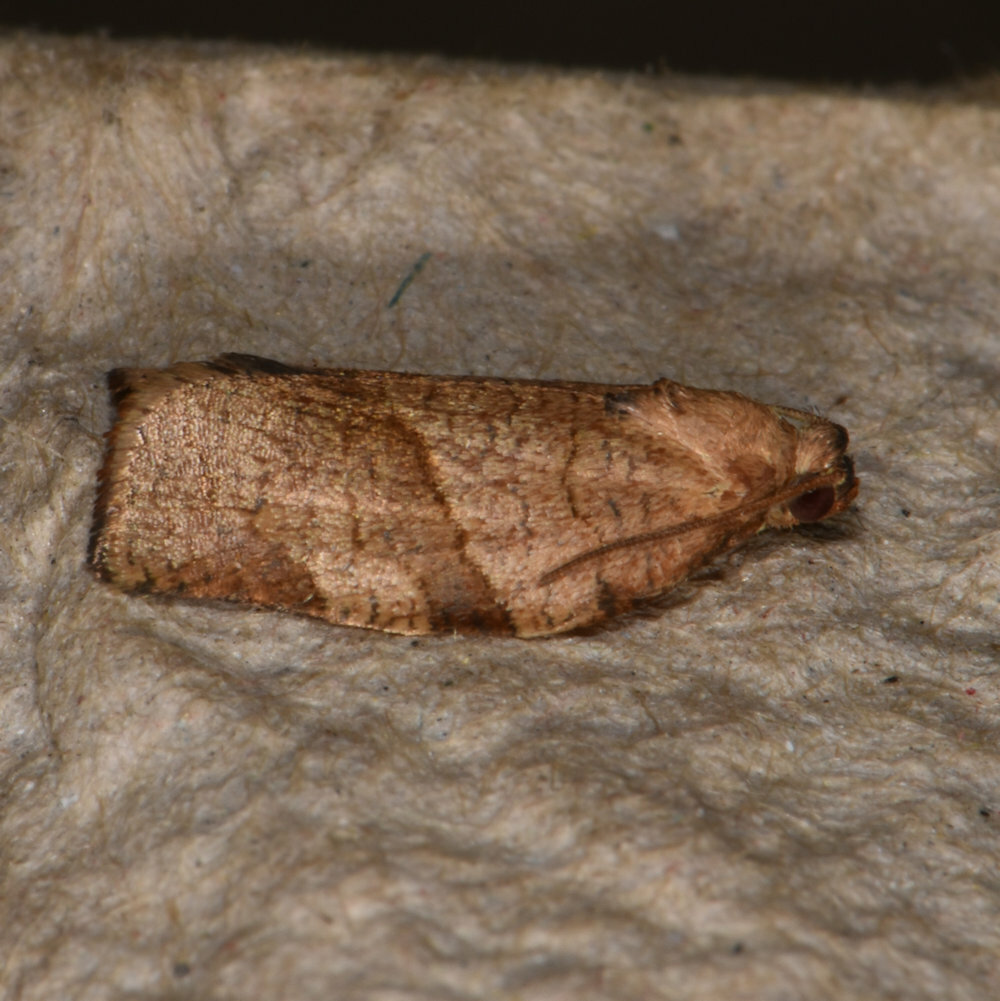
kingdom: Animalia
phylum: Arthropoda
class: Insecta
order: Lepidoptera
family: Tortricidae
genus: Choristoneura
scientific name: Choristoneura rosaceana
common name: Oblique-banded leafroller moth
